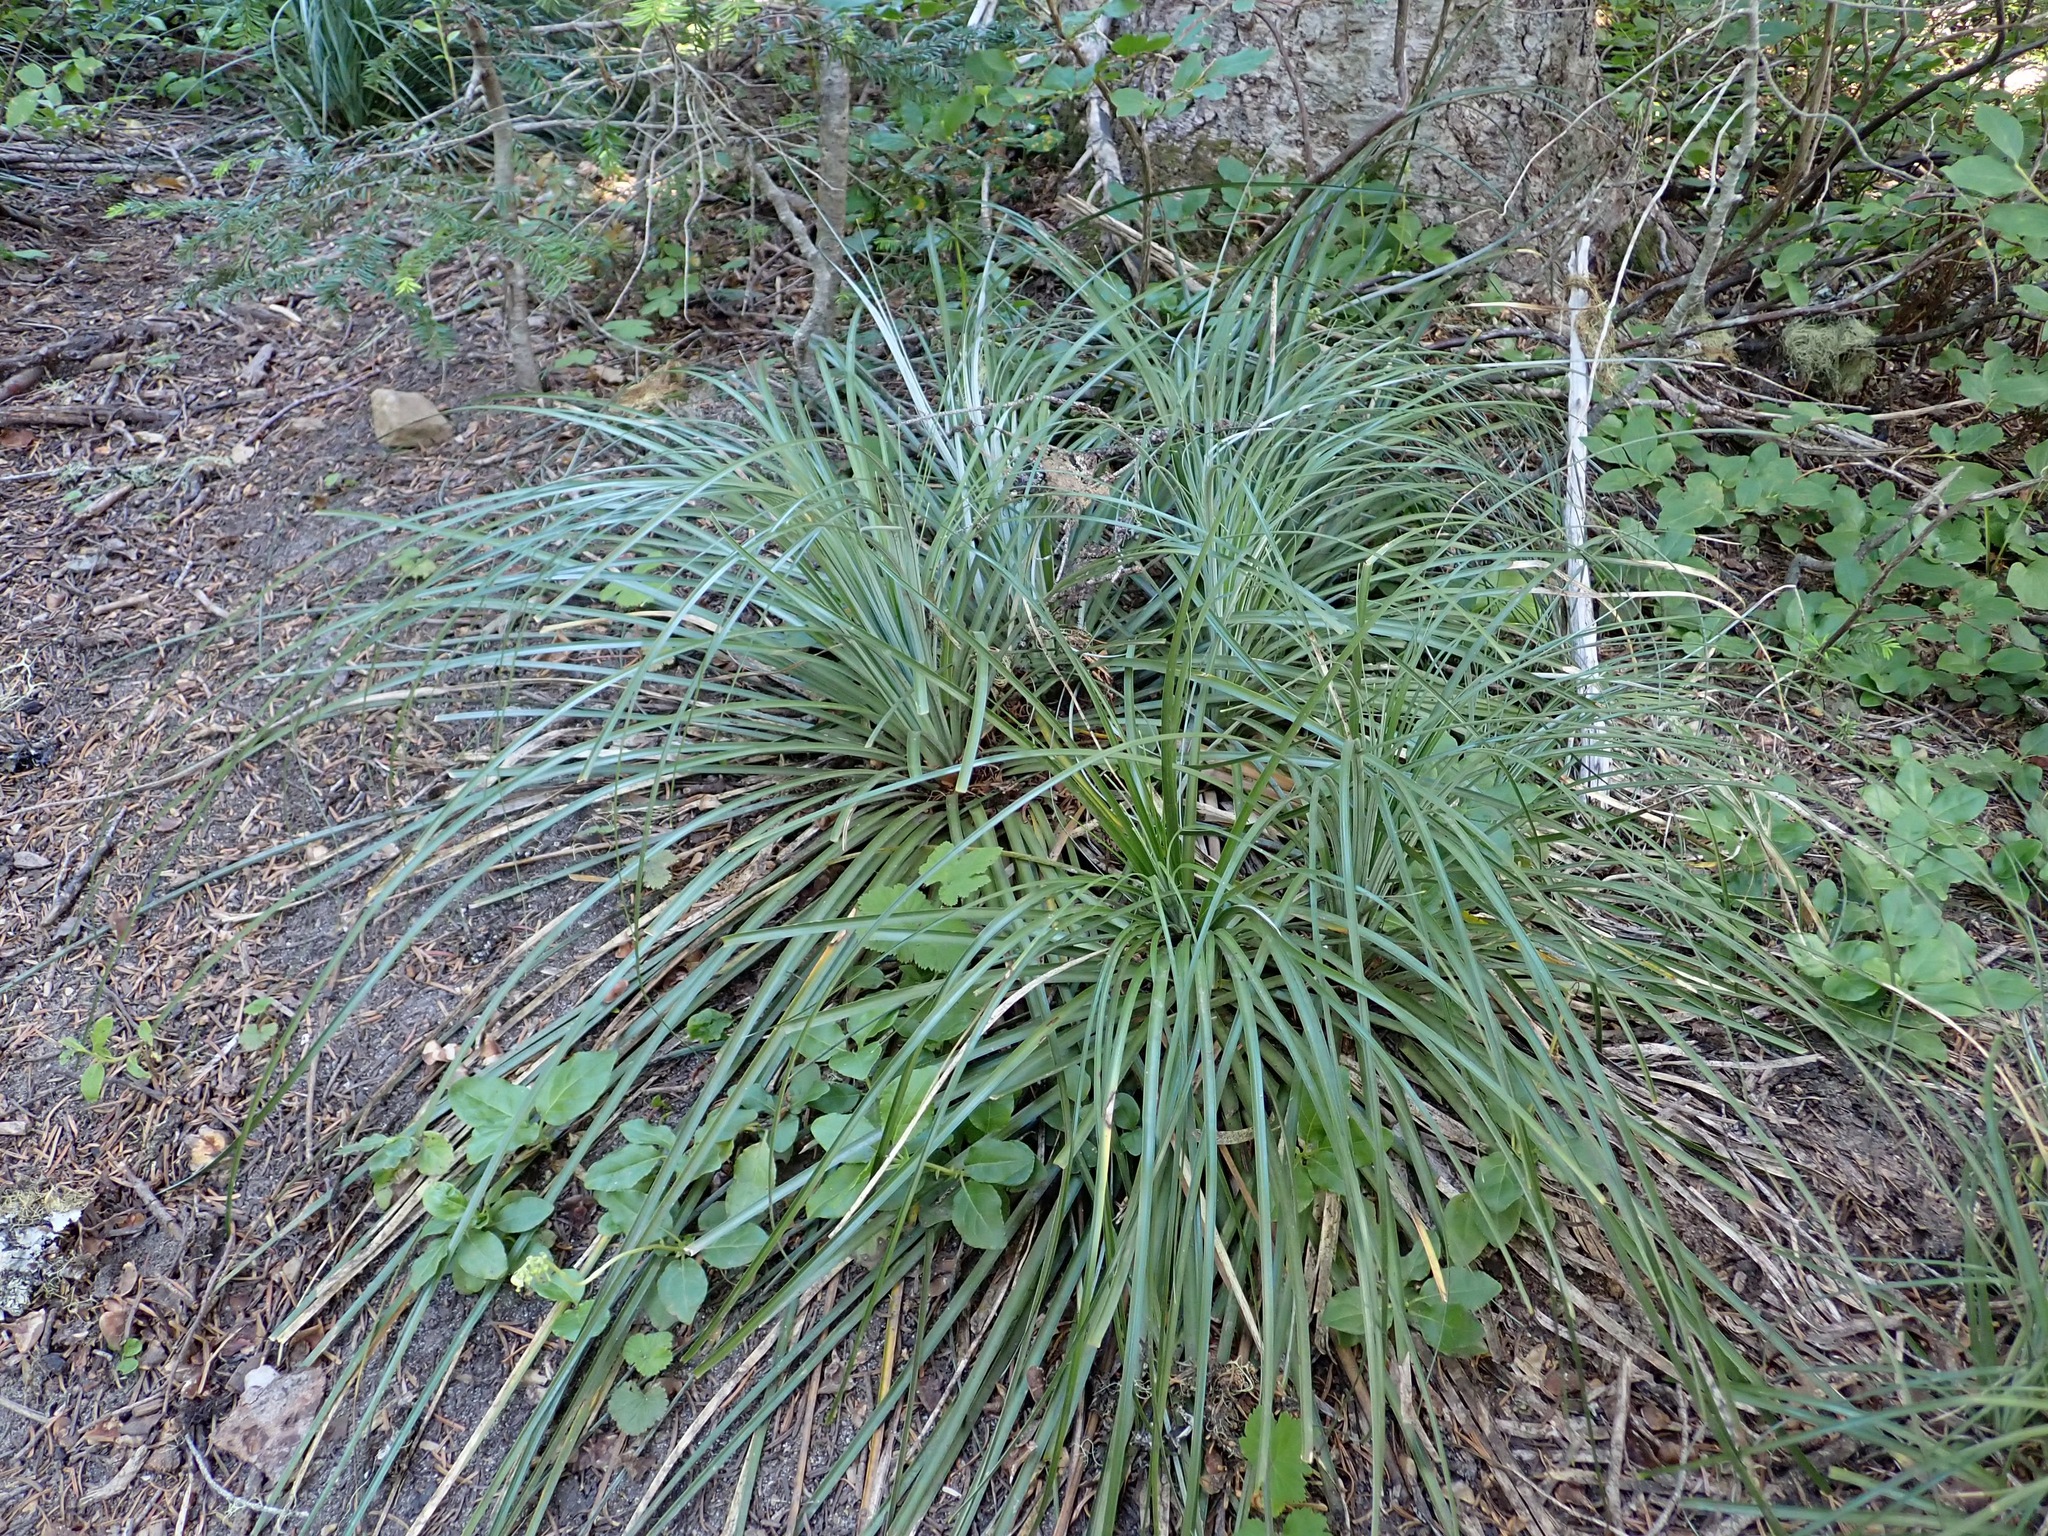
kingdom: Plantae
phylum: Tracheophyta
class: Liliopsida
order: Liliales
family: Melanthiaceae
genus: Xerophyllum
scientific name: Xerophyllum tenax
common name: Bear-grass
